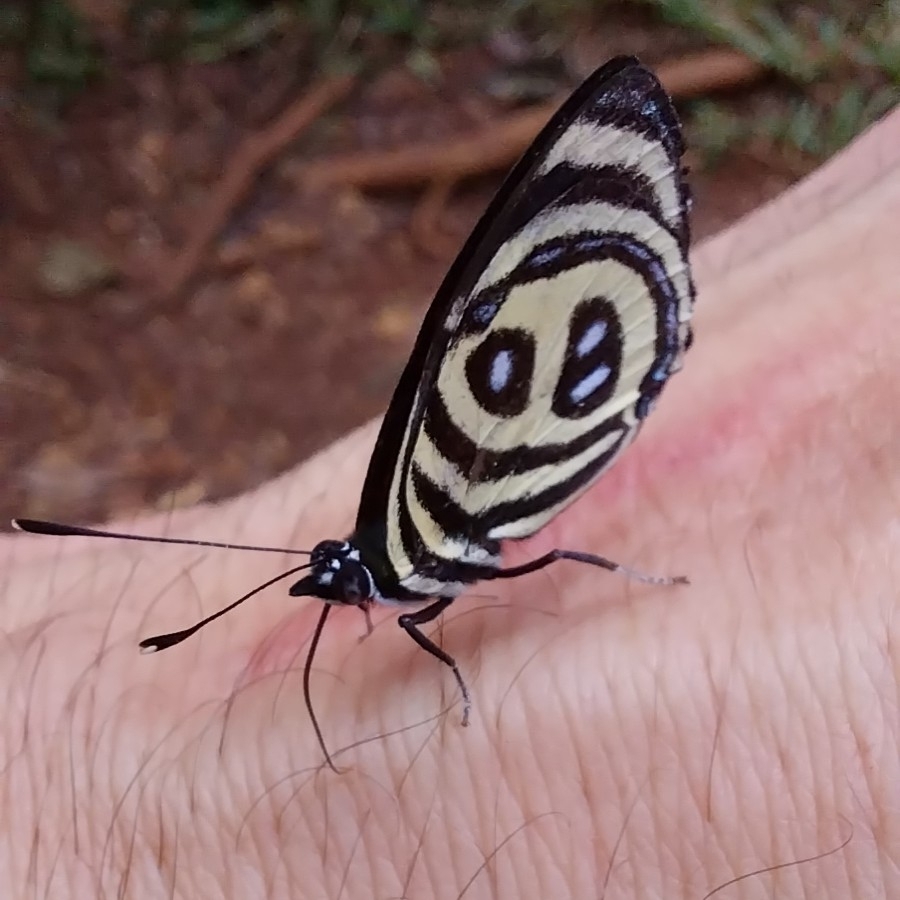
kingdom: Animalia
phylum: Arthropoda
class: Insecta
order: Lepidoptera
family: Nymphalidae
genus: Catagramma
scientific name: Catagramma pyracmon
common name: Google-eyed eighty-eight
